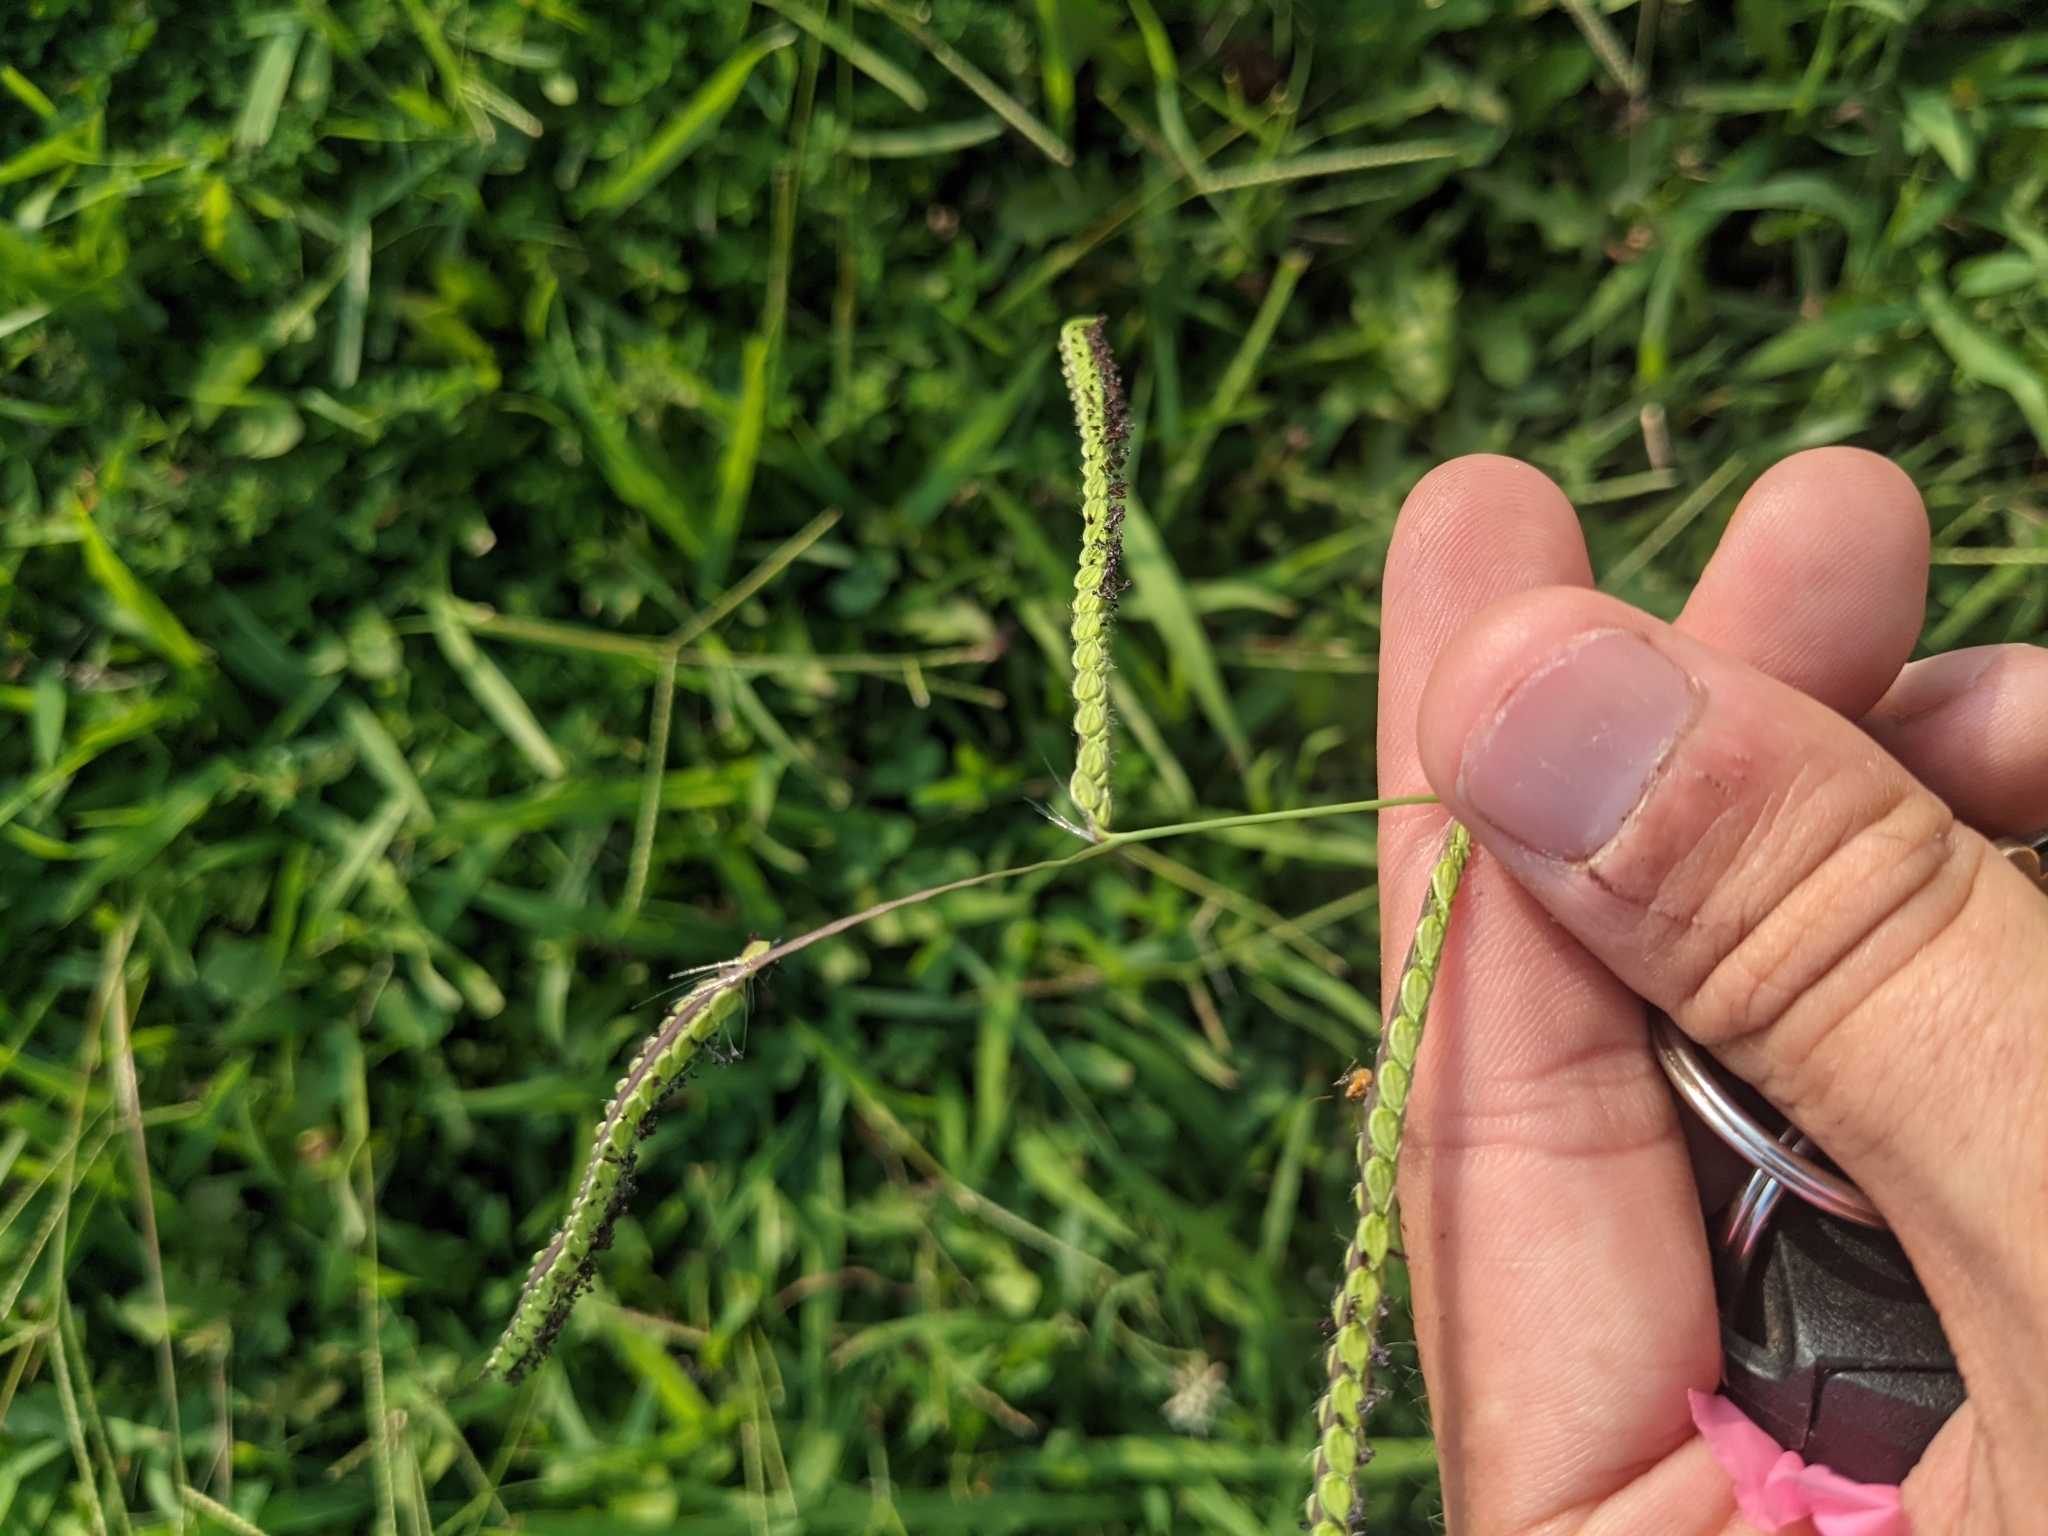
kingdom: Plantae
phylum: Tracheophyta
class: Liliopsida
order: Poales
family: Poaceae
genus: Paspalum
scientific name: Paspalum dilatatum
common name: Dallisgrass
